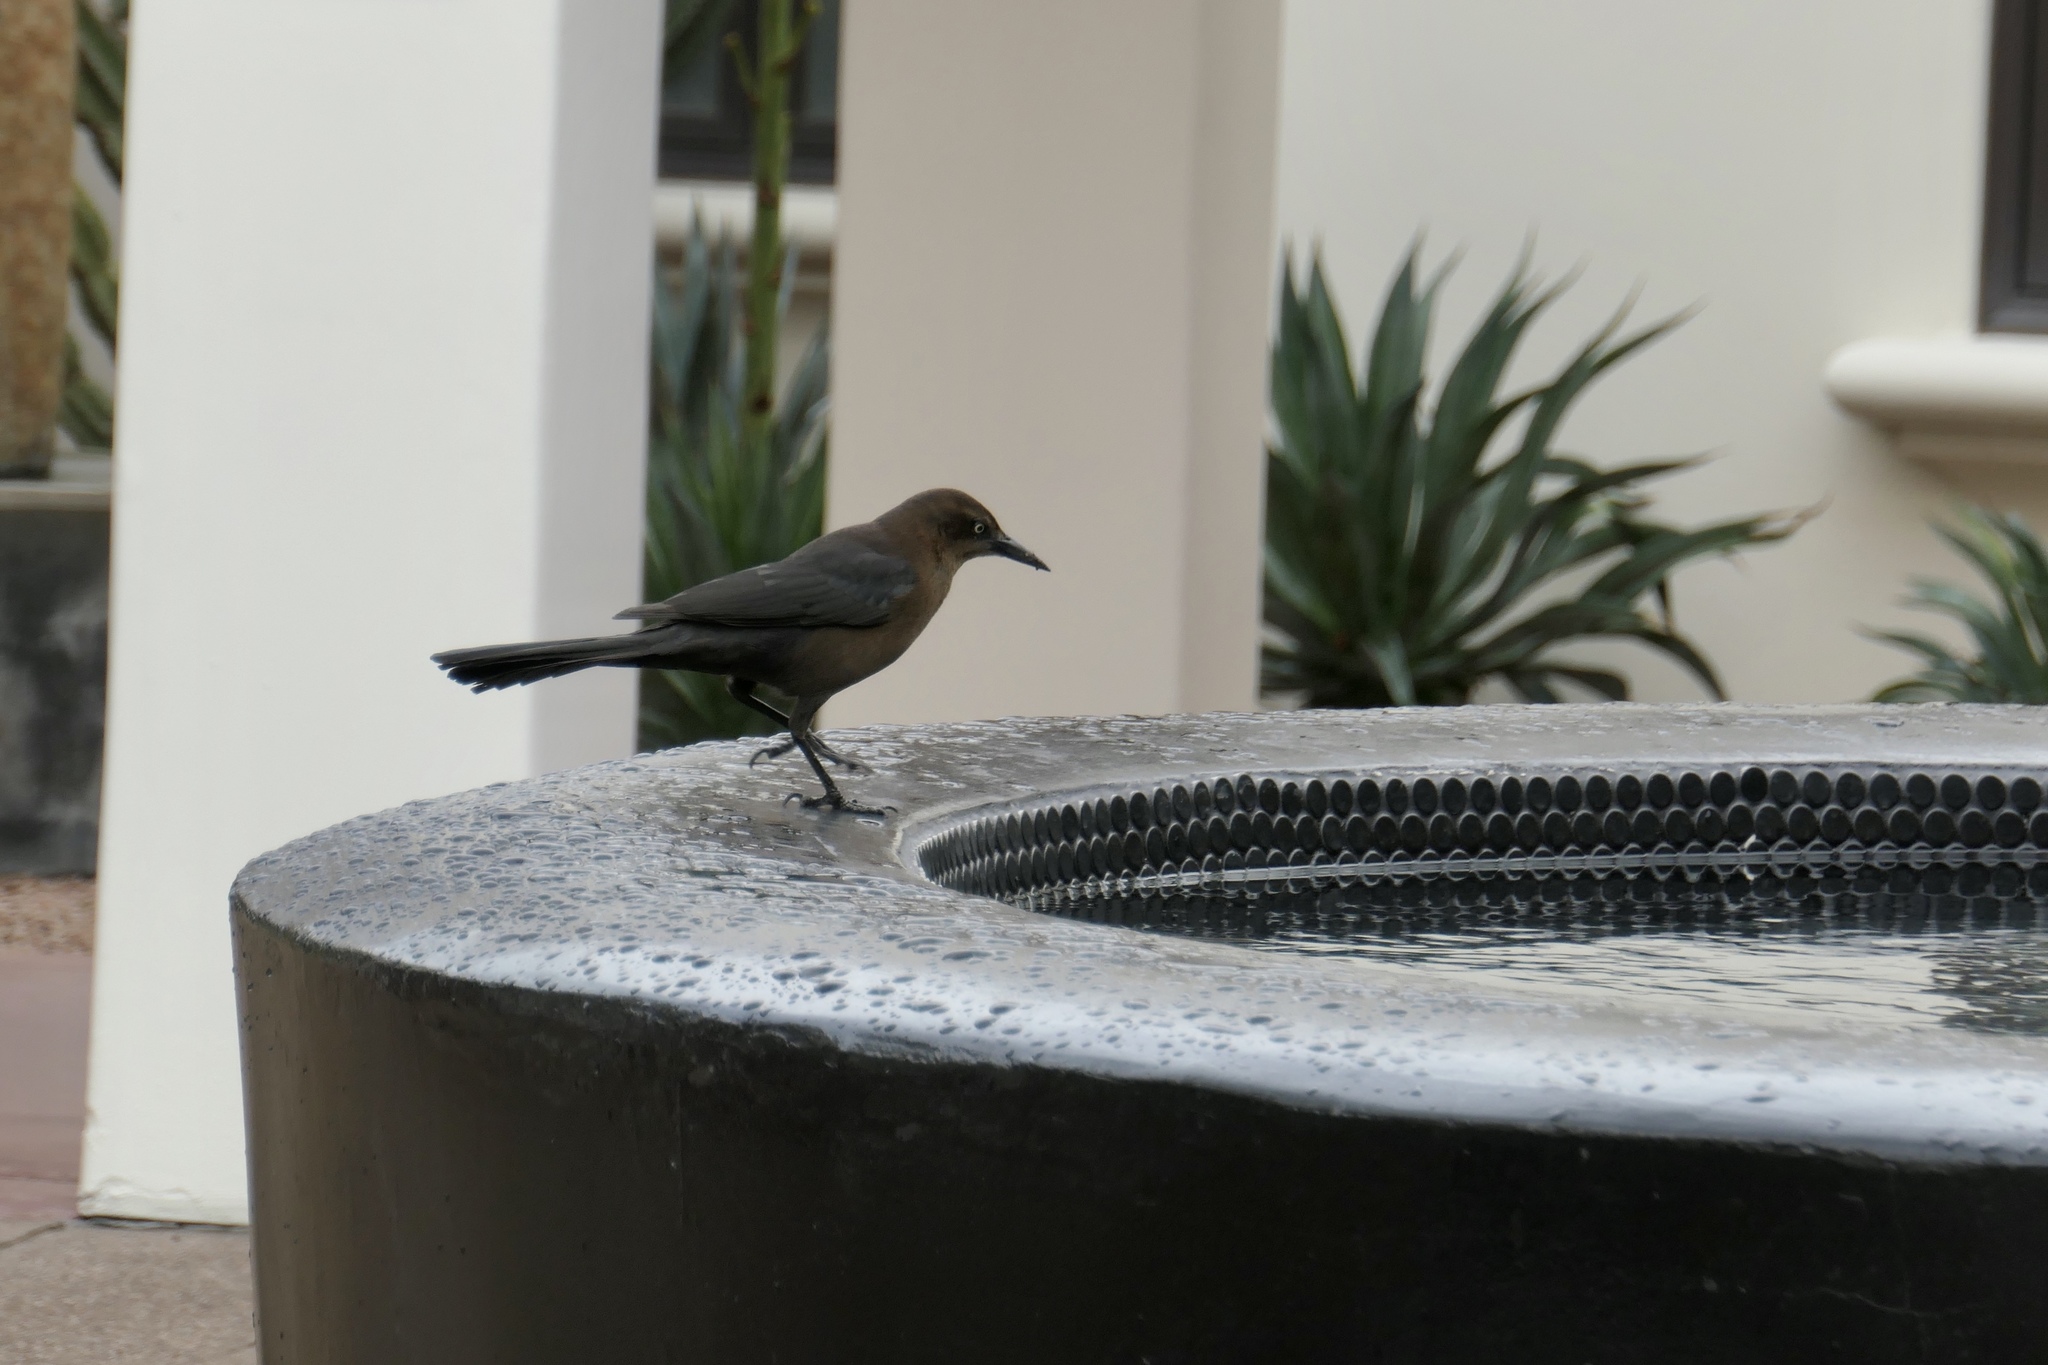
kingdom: Animalia
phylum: Chordata
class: Aves
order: Passeriformes
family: Icteridae
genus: Quiscalus
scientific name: Quiscalus mexicanus
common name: Great-tailed grackle
